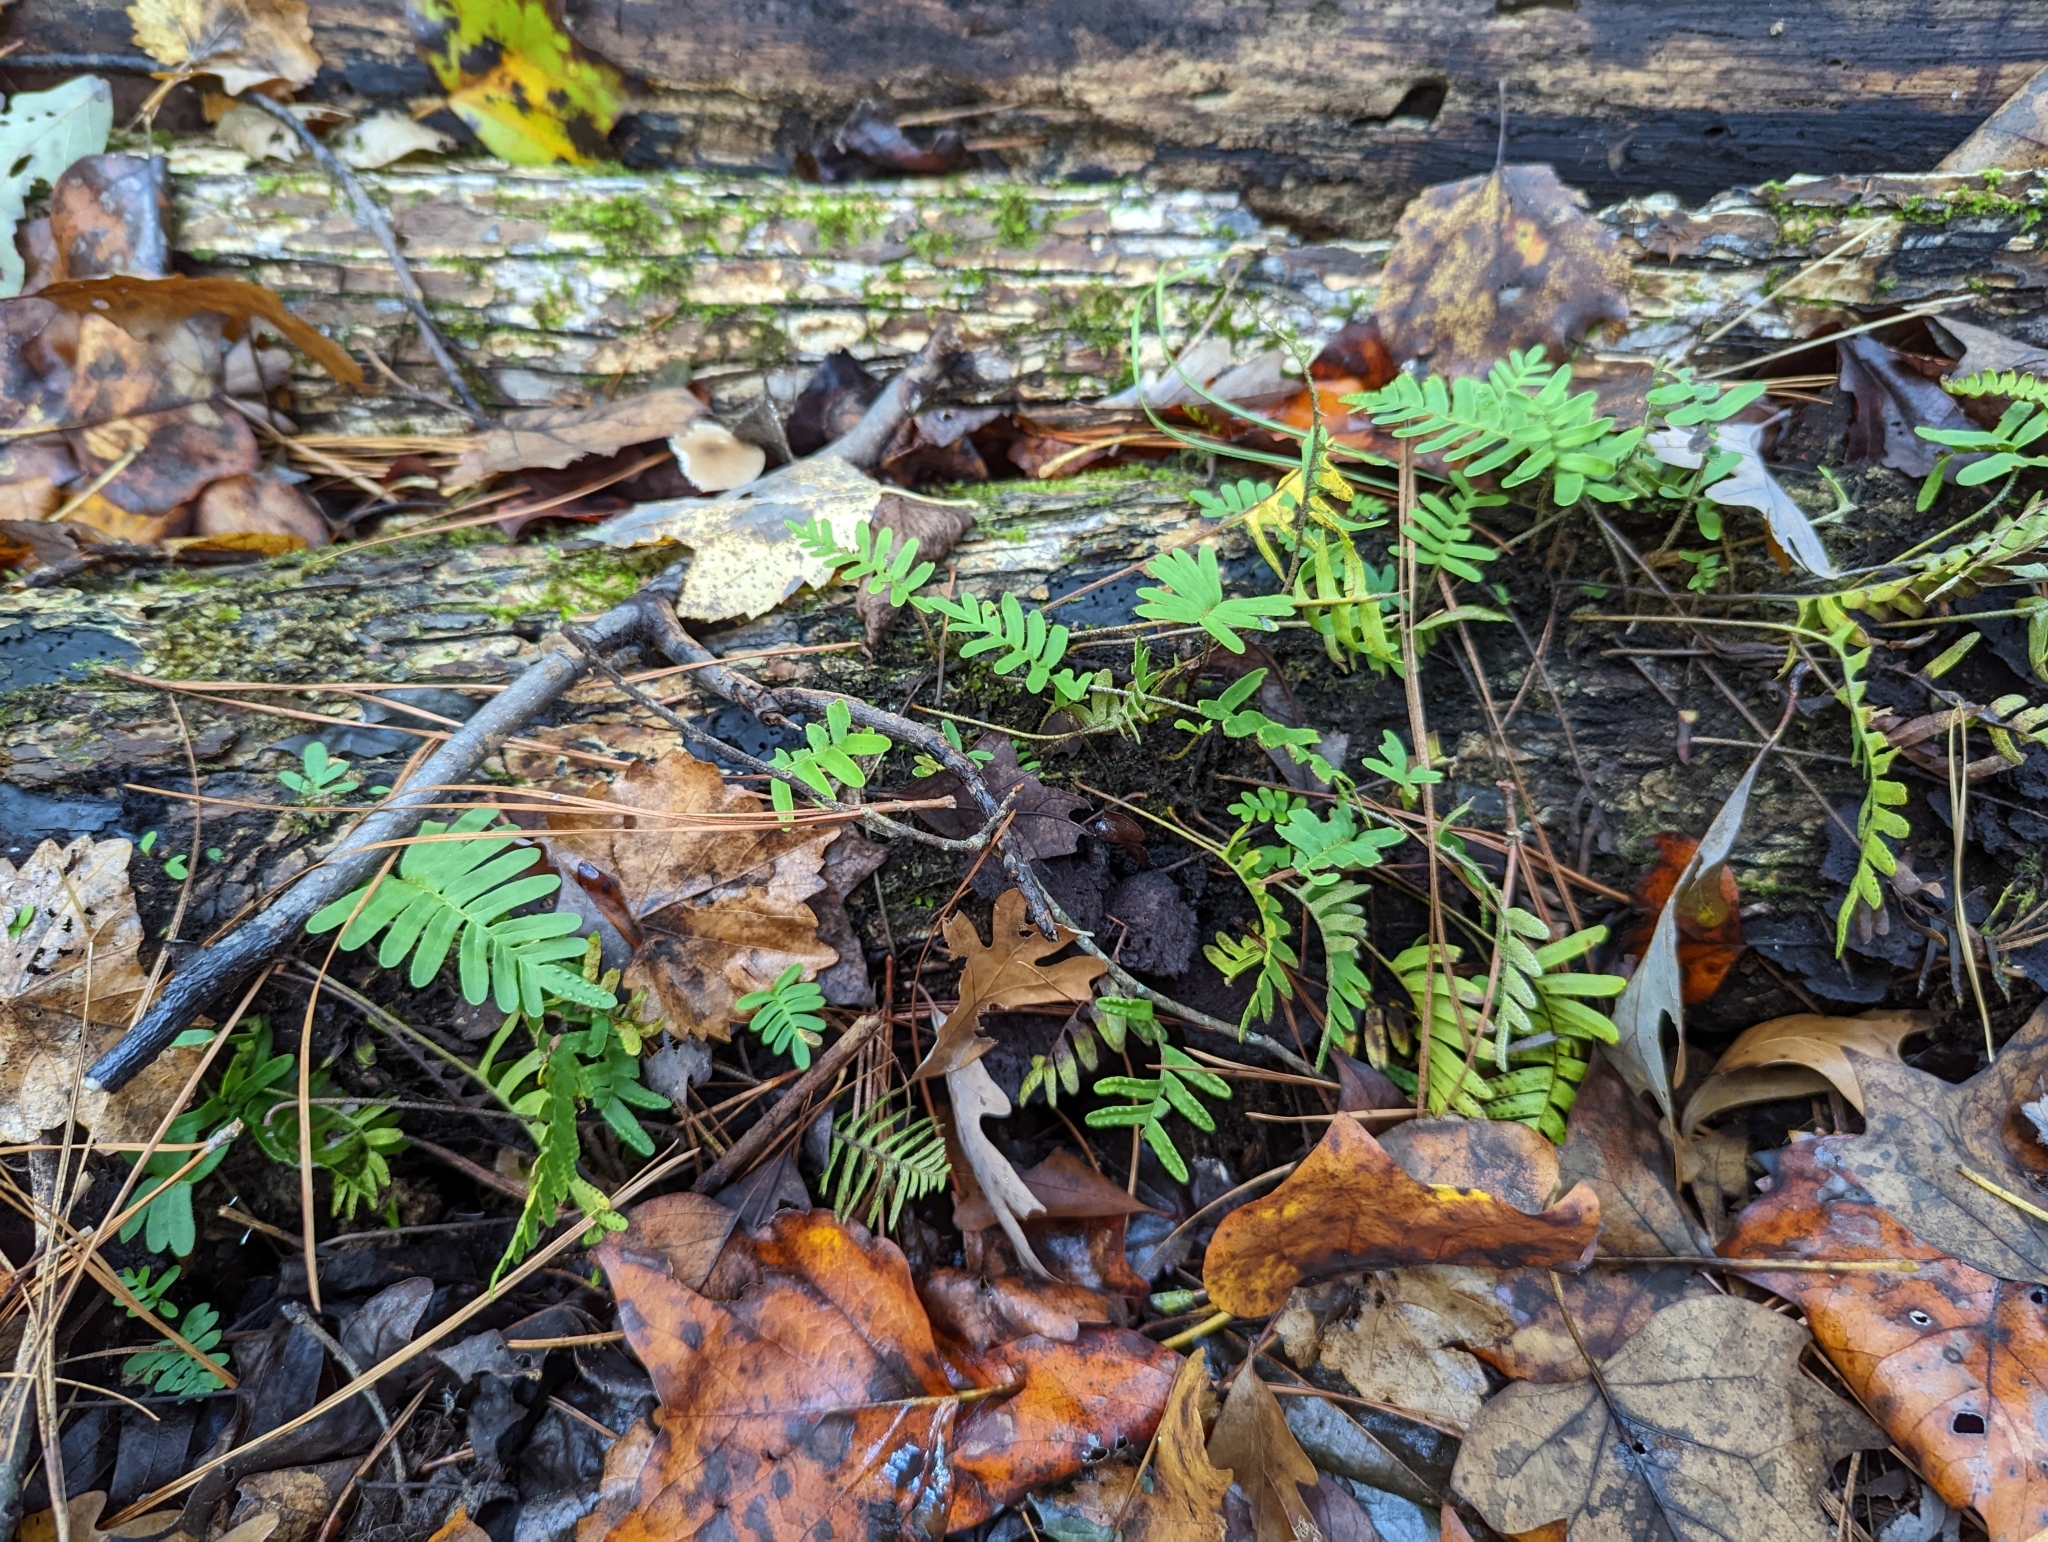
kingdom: Plantae
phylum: Tracheophyta
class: Polypodiopsida
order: Polypodiales
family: Polypodiaceae
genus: Pleopeltis
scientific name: Pleopeltis michauxiana
